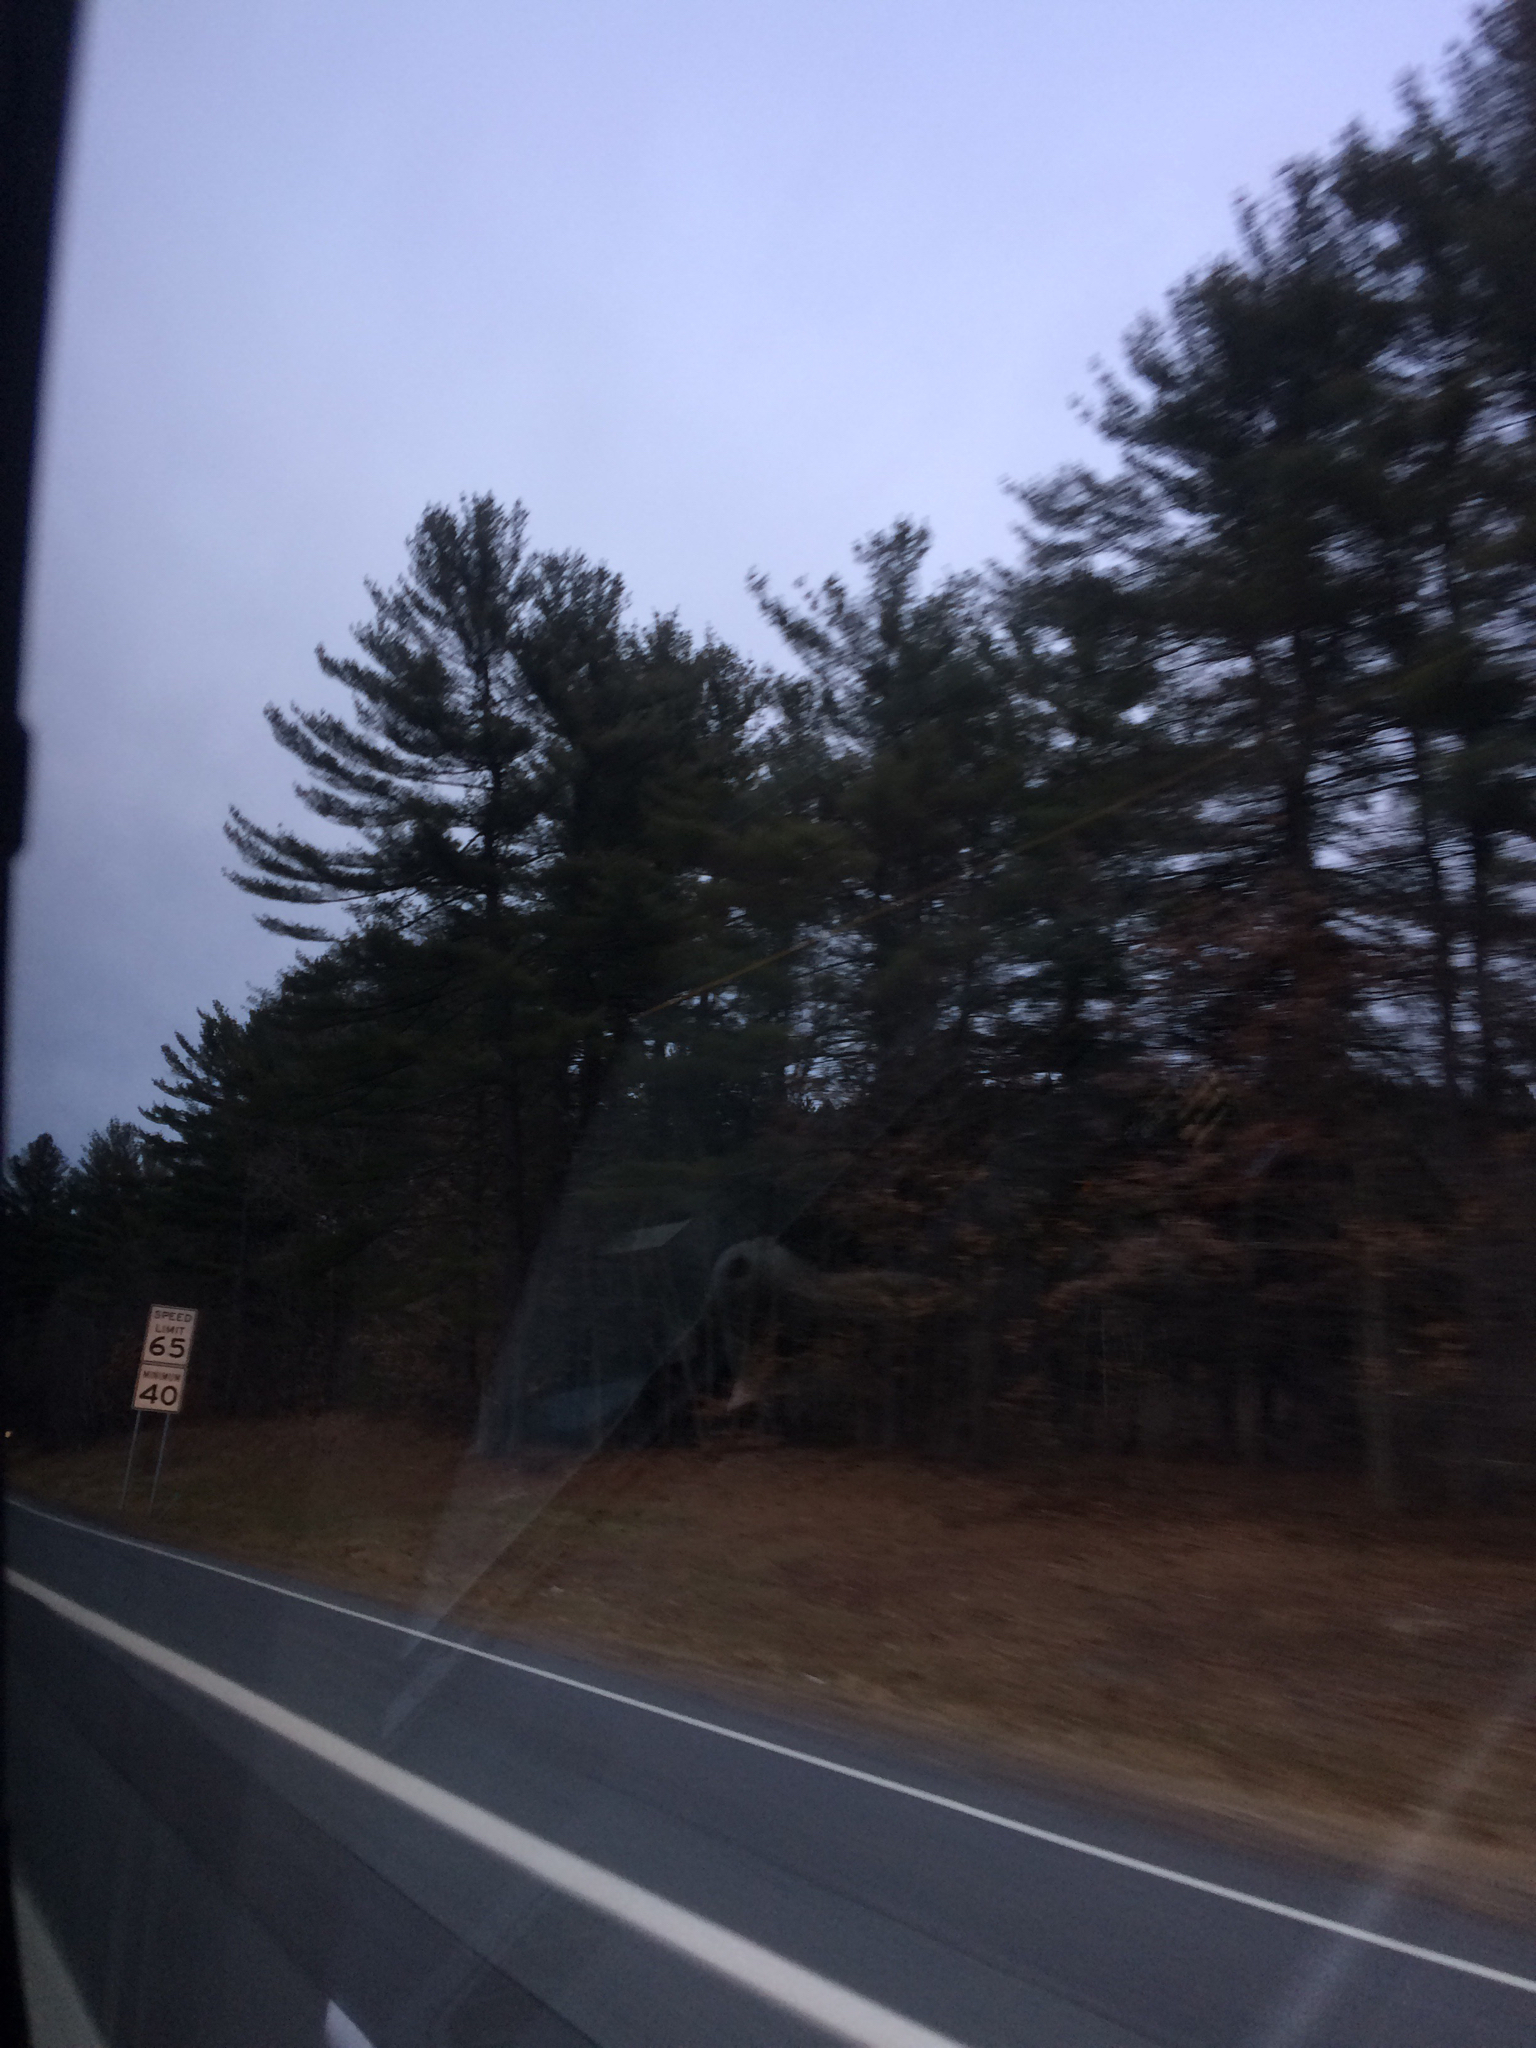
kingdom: Plantae
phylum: Tracheophyta
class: Pinopsida
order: Pinales
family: Pinaceae
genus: Pinus
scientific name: Pinus strobus
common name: Weymouth pine
